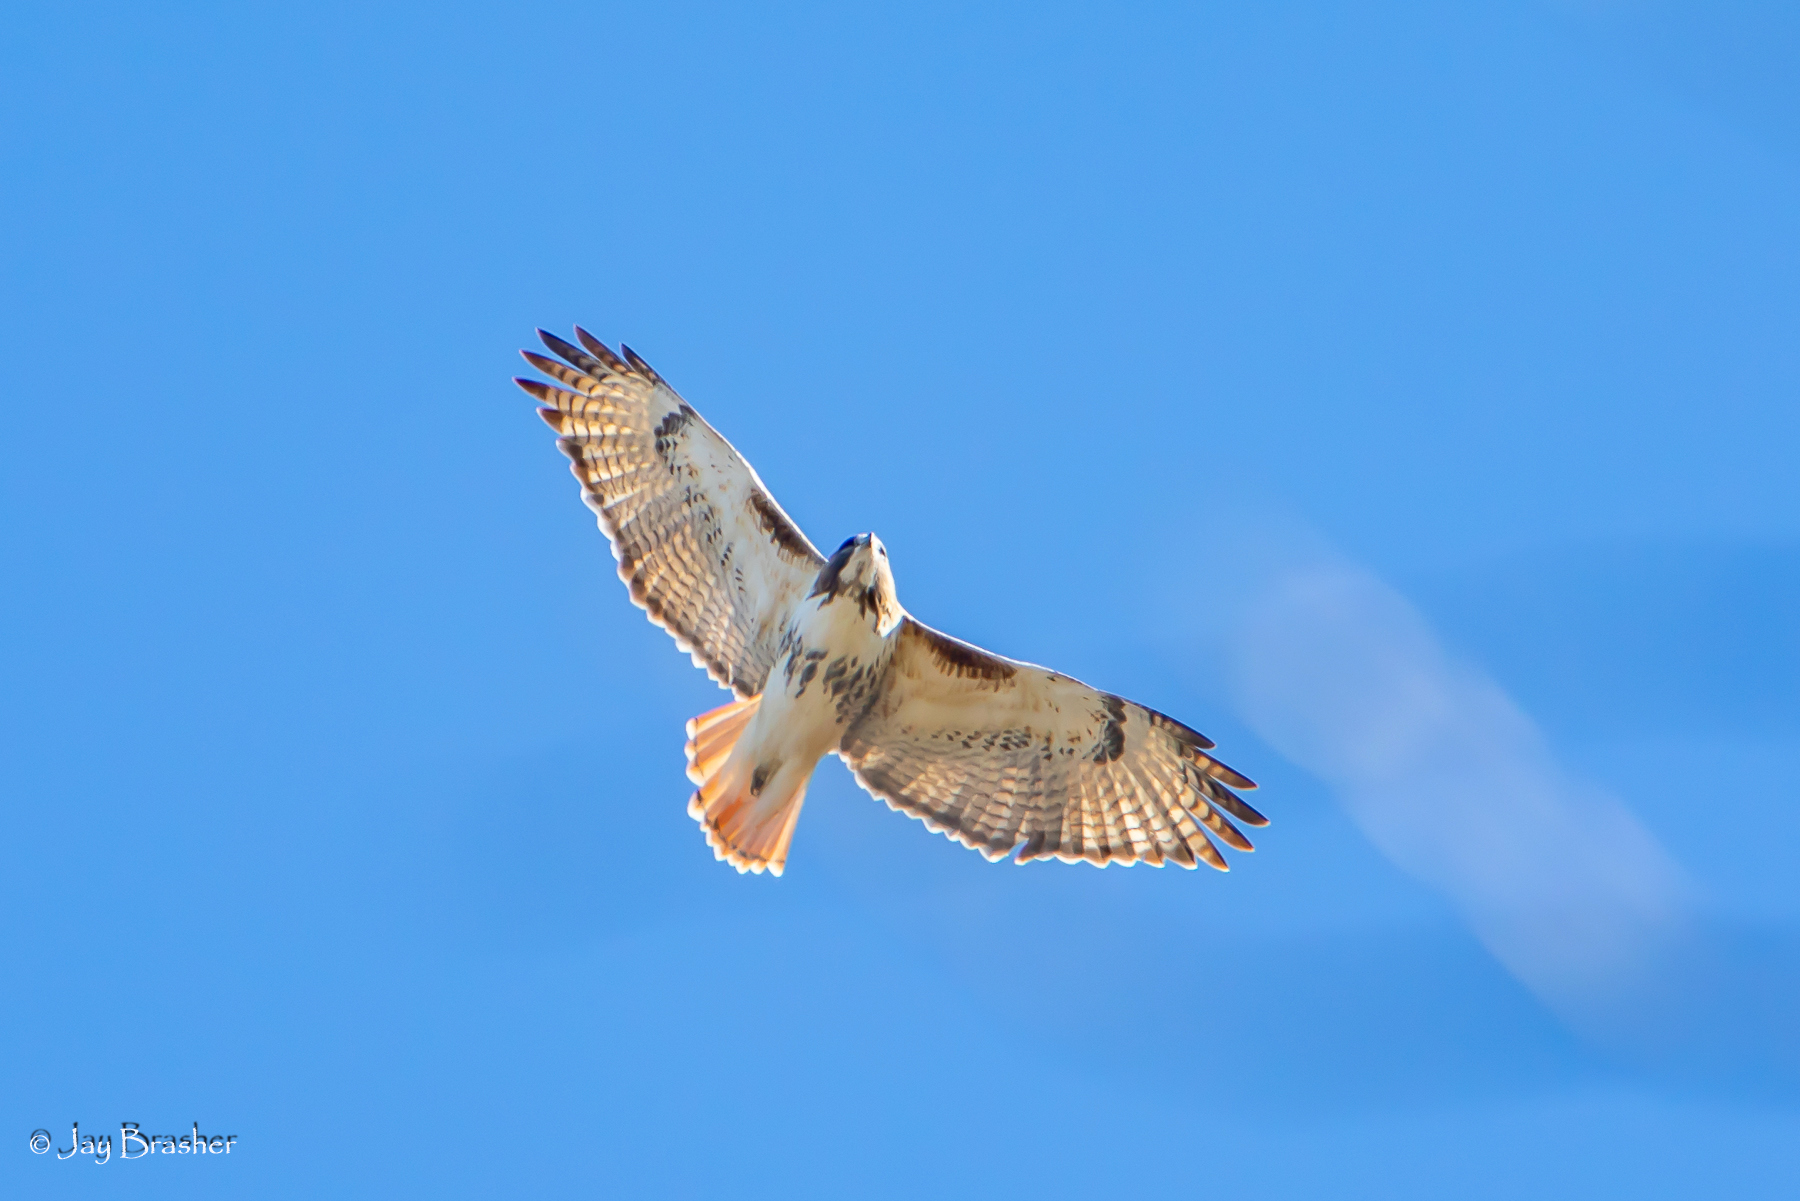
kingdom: Animalia
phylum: Chordata
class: Aves
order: Accipitriformes
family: Accipitridae
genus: Buteo
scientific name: Buteo jamaicensis
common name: Red-tailed hawk
